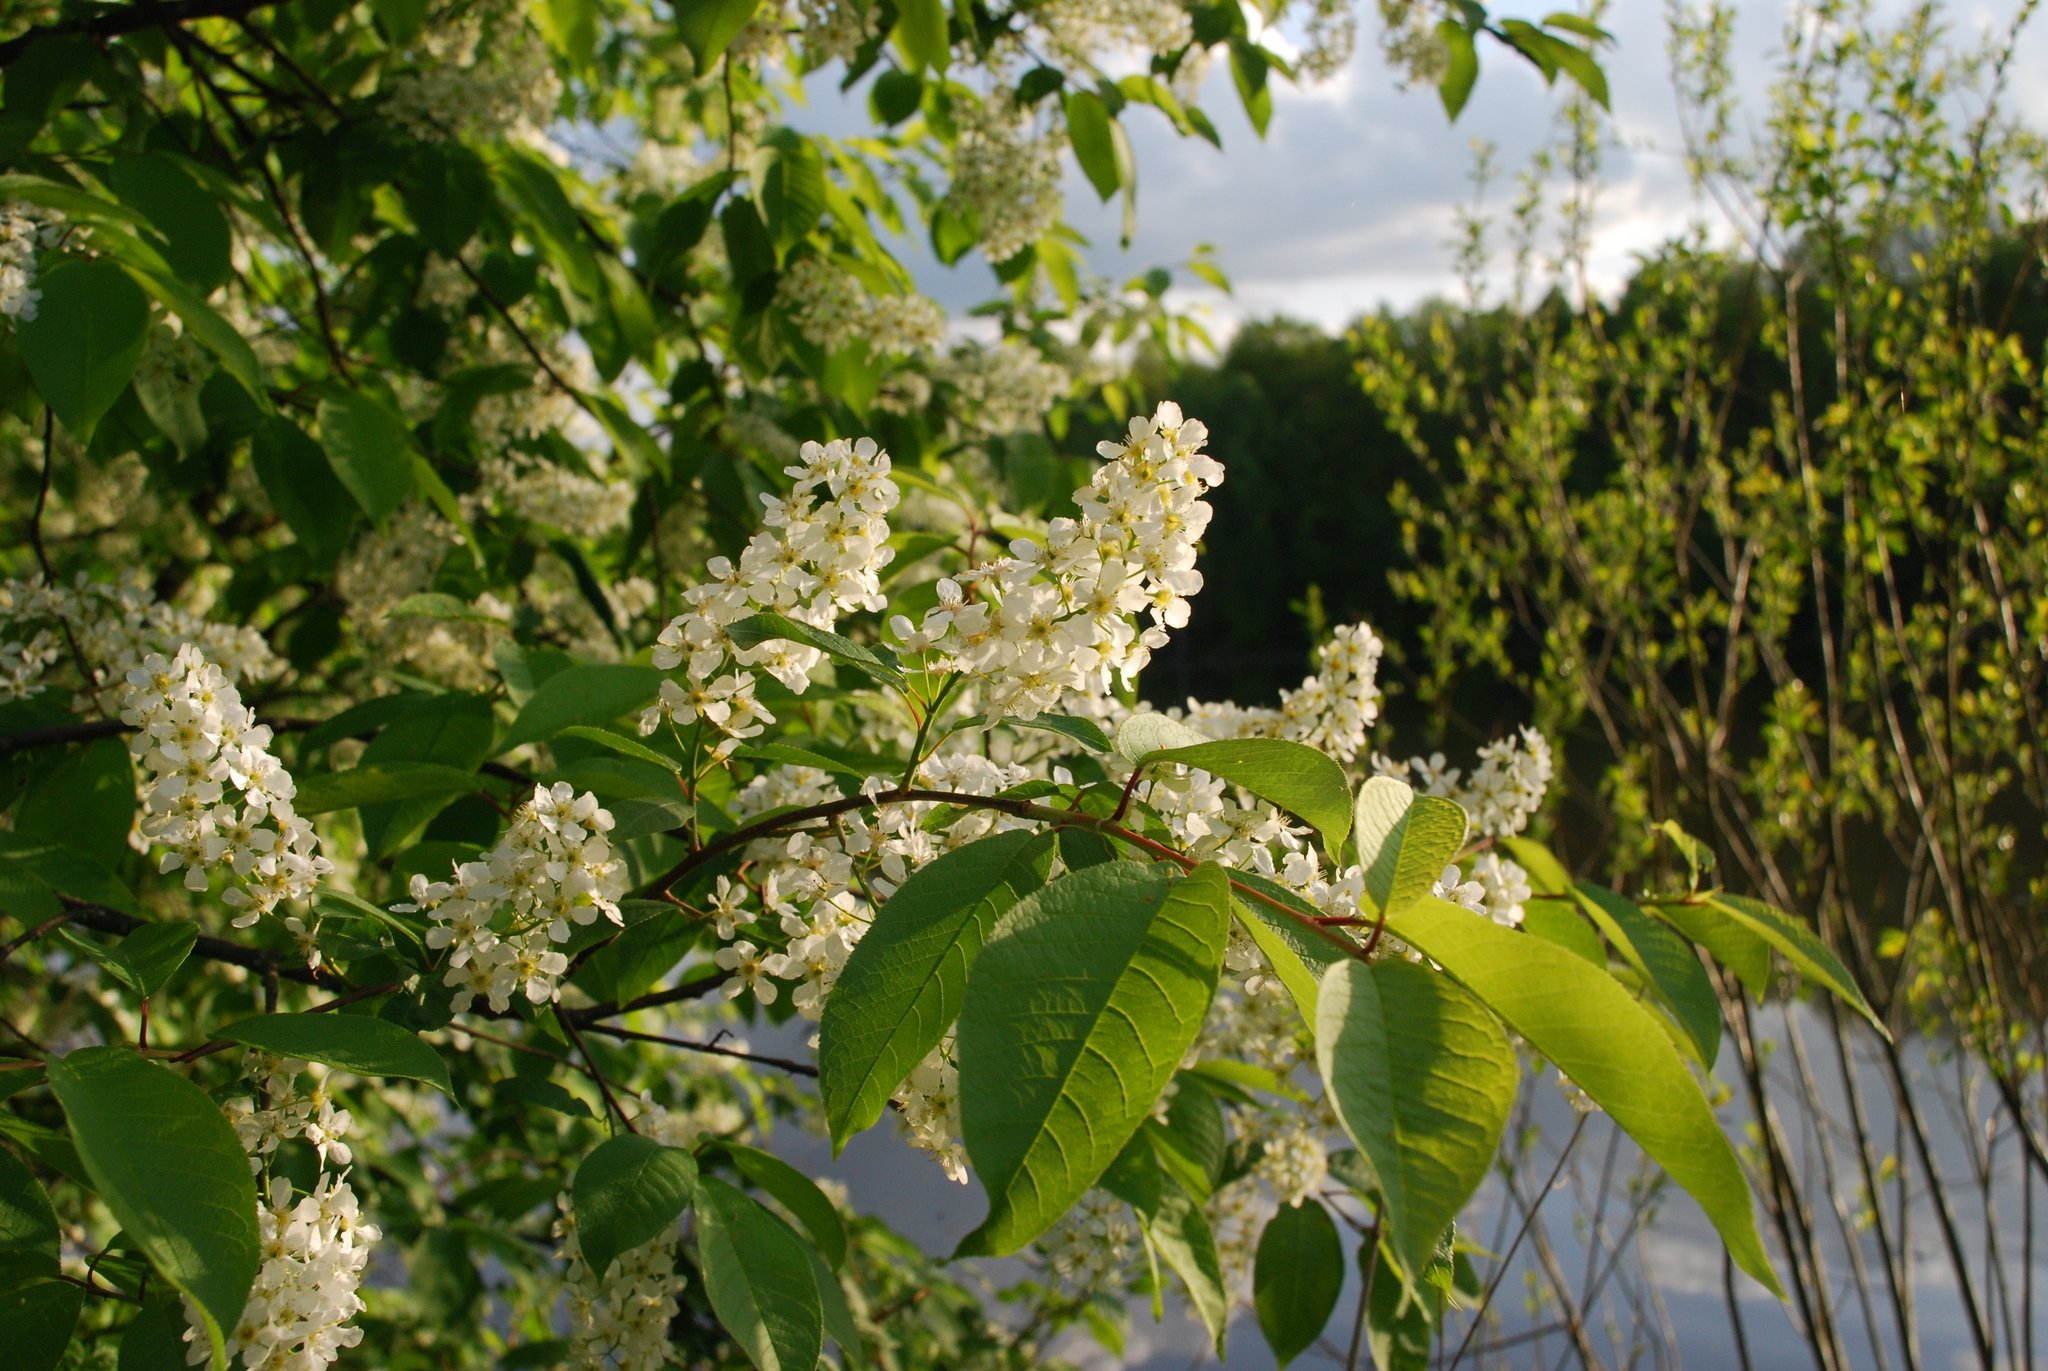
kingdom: Plantae
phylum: Tracheophyta
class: Magnoliopsida
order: Rosales
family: Rosaceae
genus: Prunus
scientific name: Prunus padus
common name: Bird cherry
